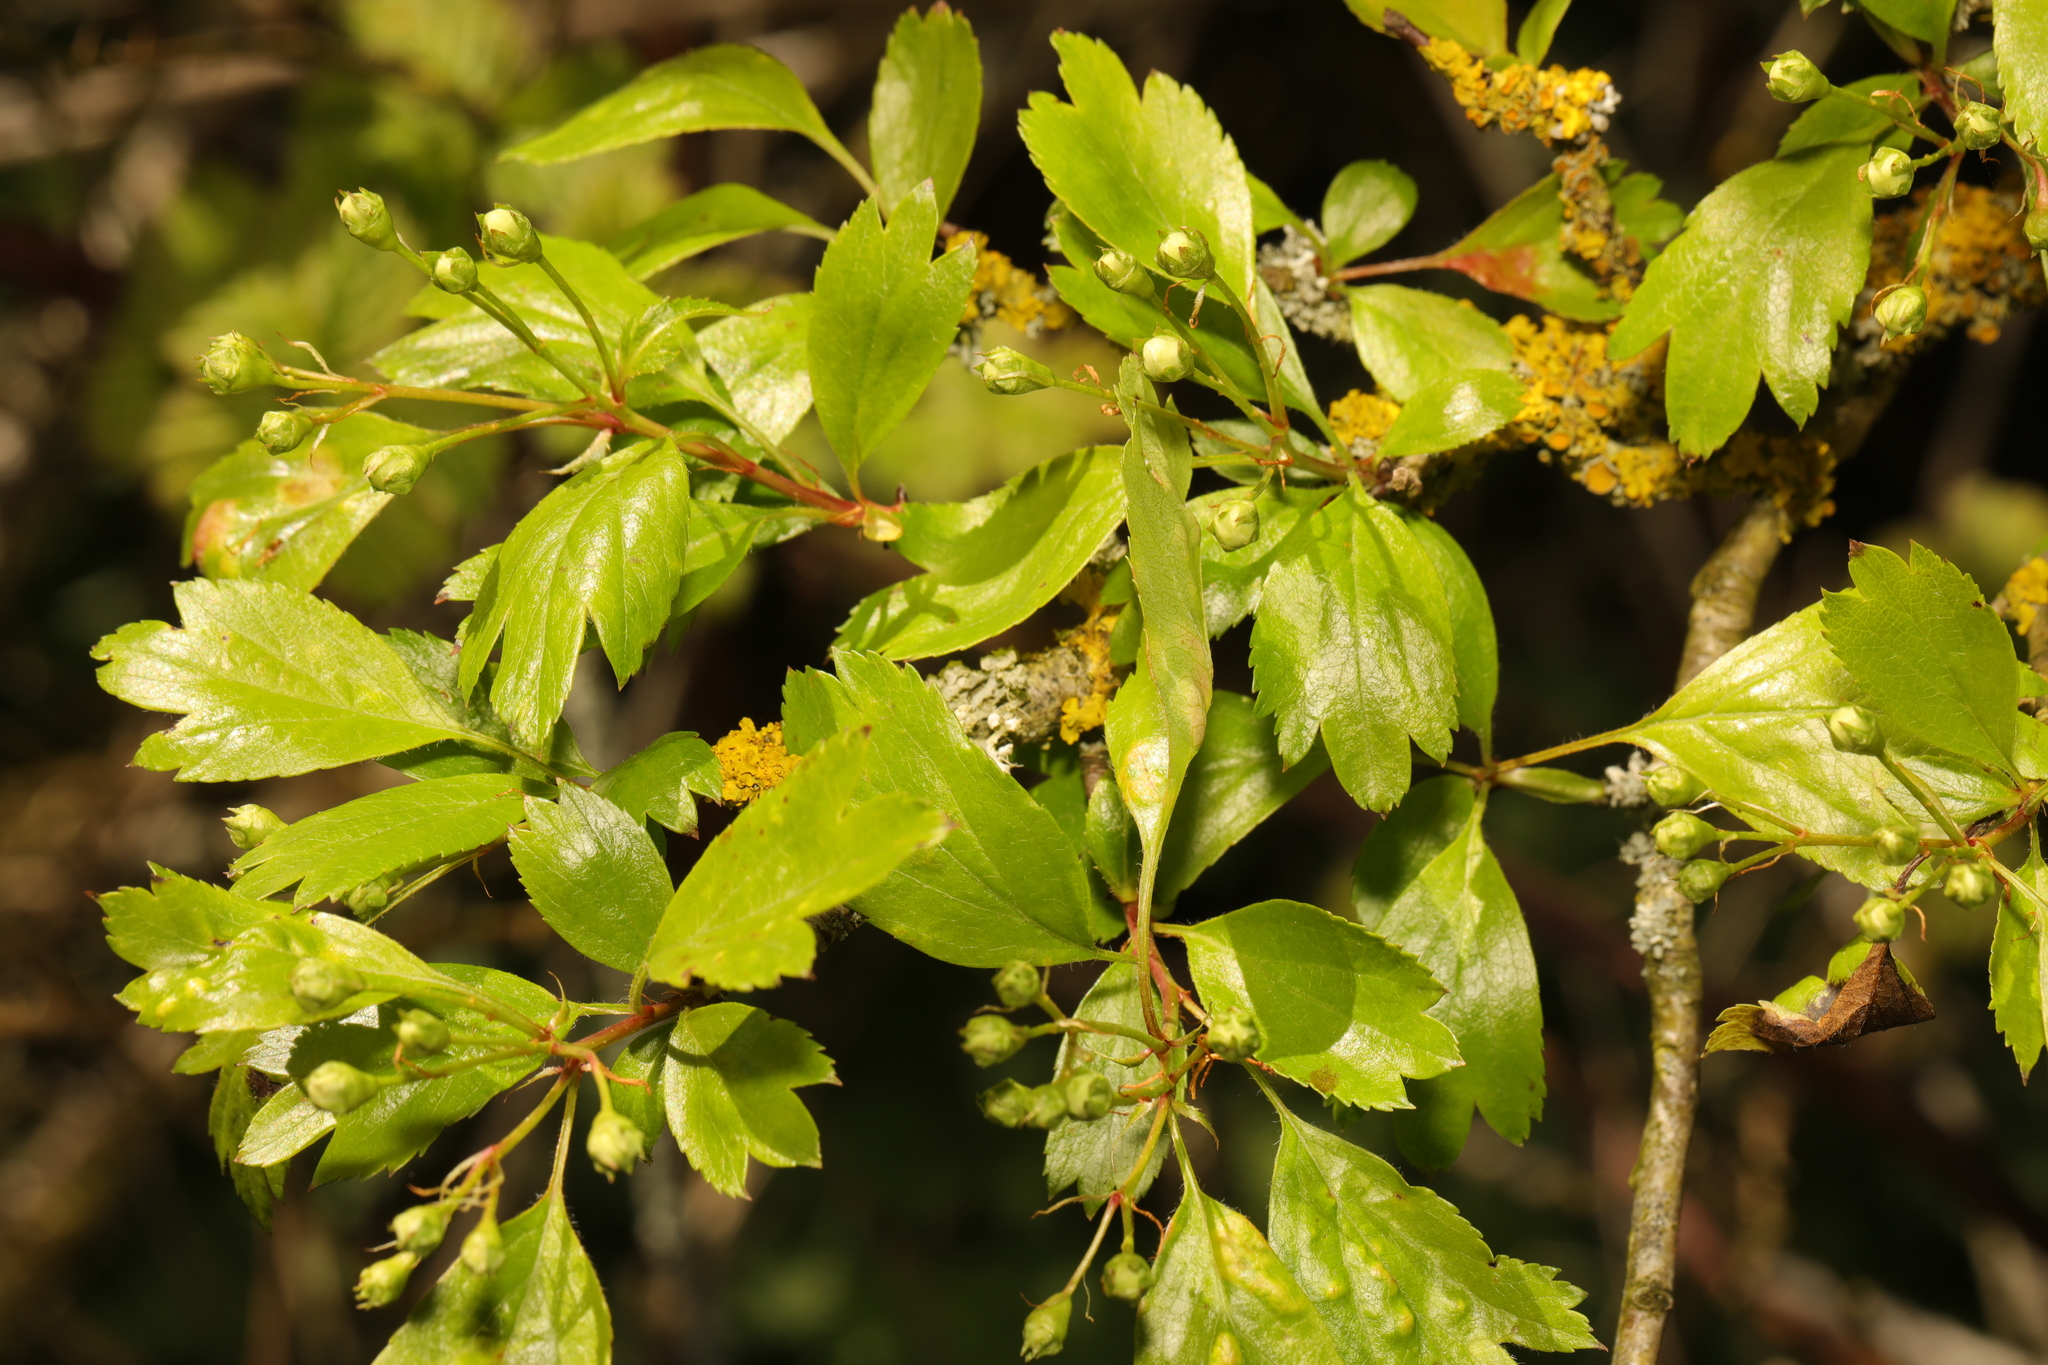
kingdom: Plantae
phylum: Tracheophyta
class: Magnoliopsida
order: Rosales
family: Rosaceae
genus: Crataegus
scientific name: Crataegus monogyna
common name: Hawthorn
